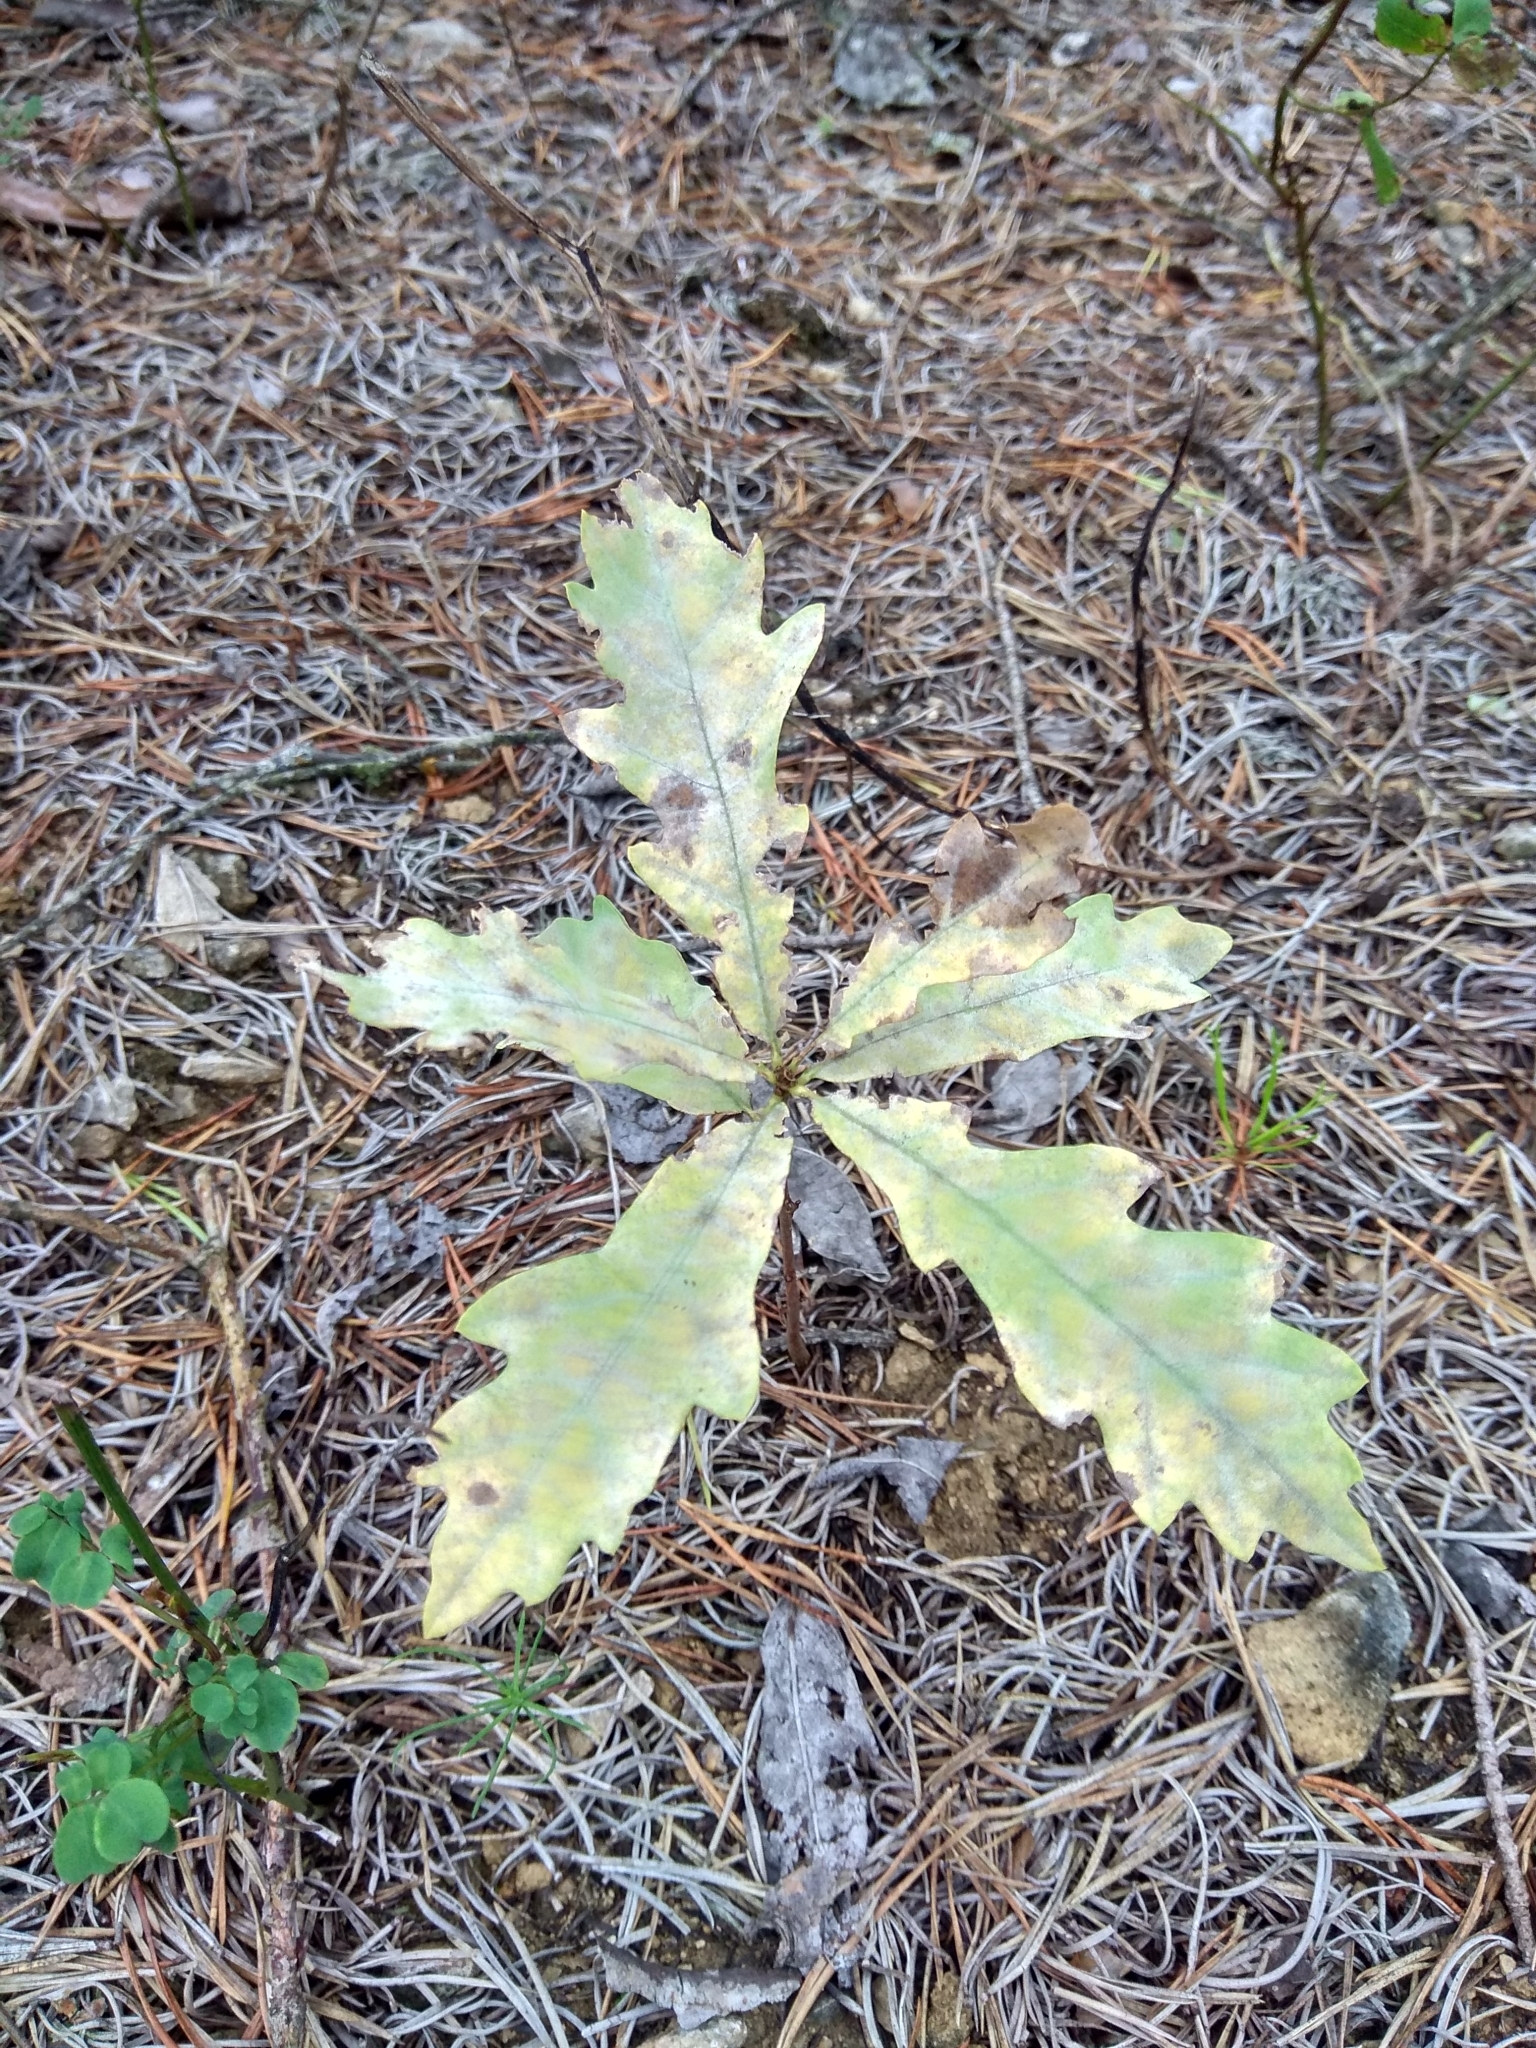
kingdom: Plantae
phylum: Tracheophyta
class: Magnoliopsida
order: Fagales
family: Fagaceae
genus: Quercus
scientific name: Quercus robur
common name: Pedunculate oak
